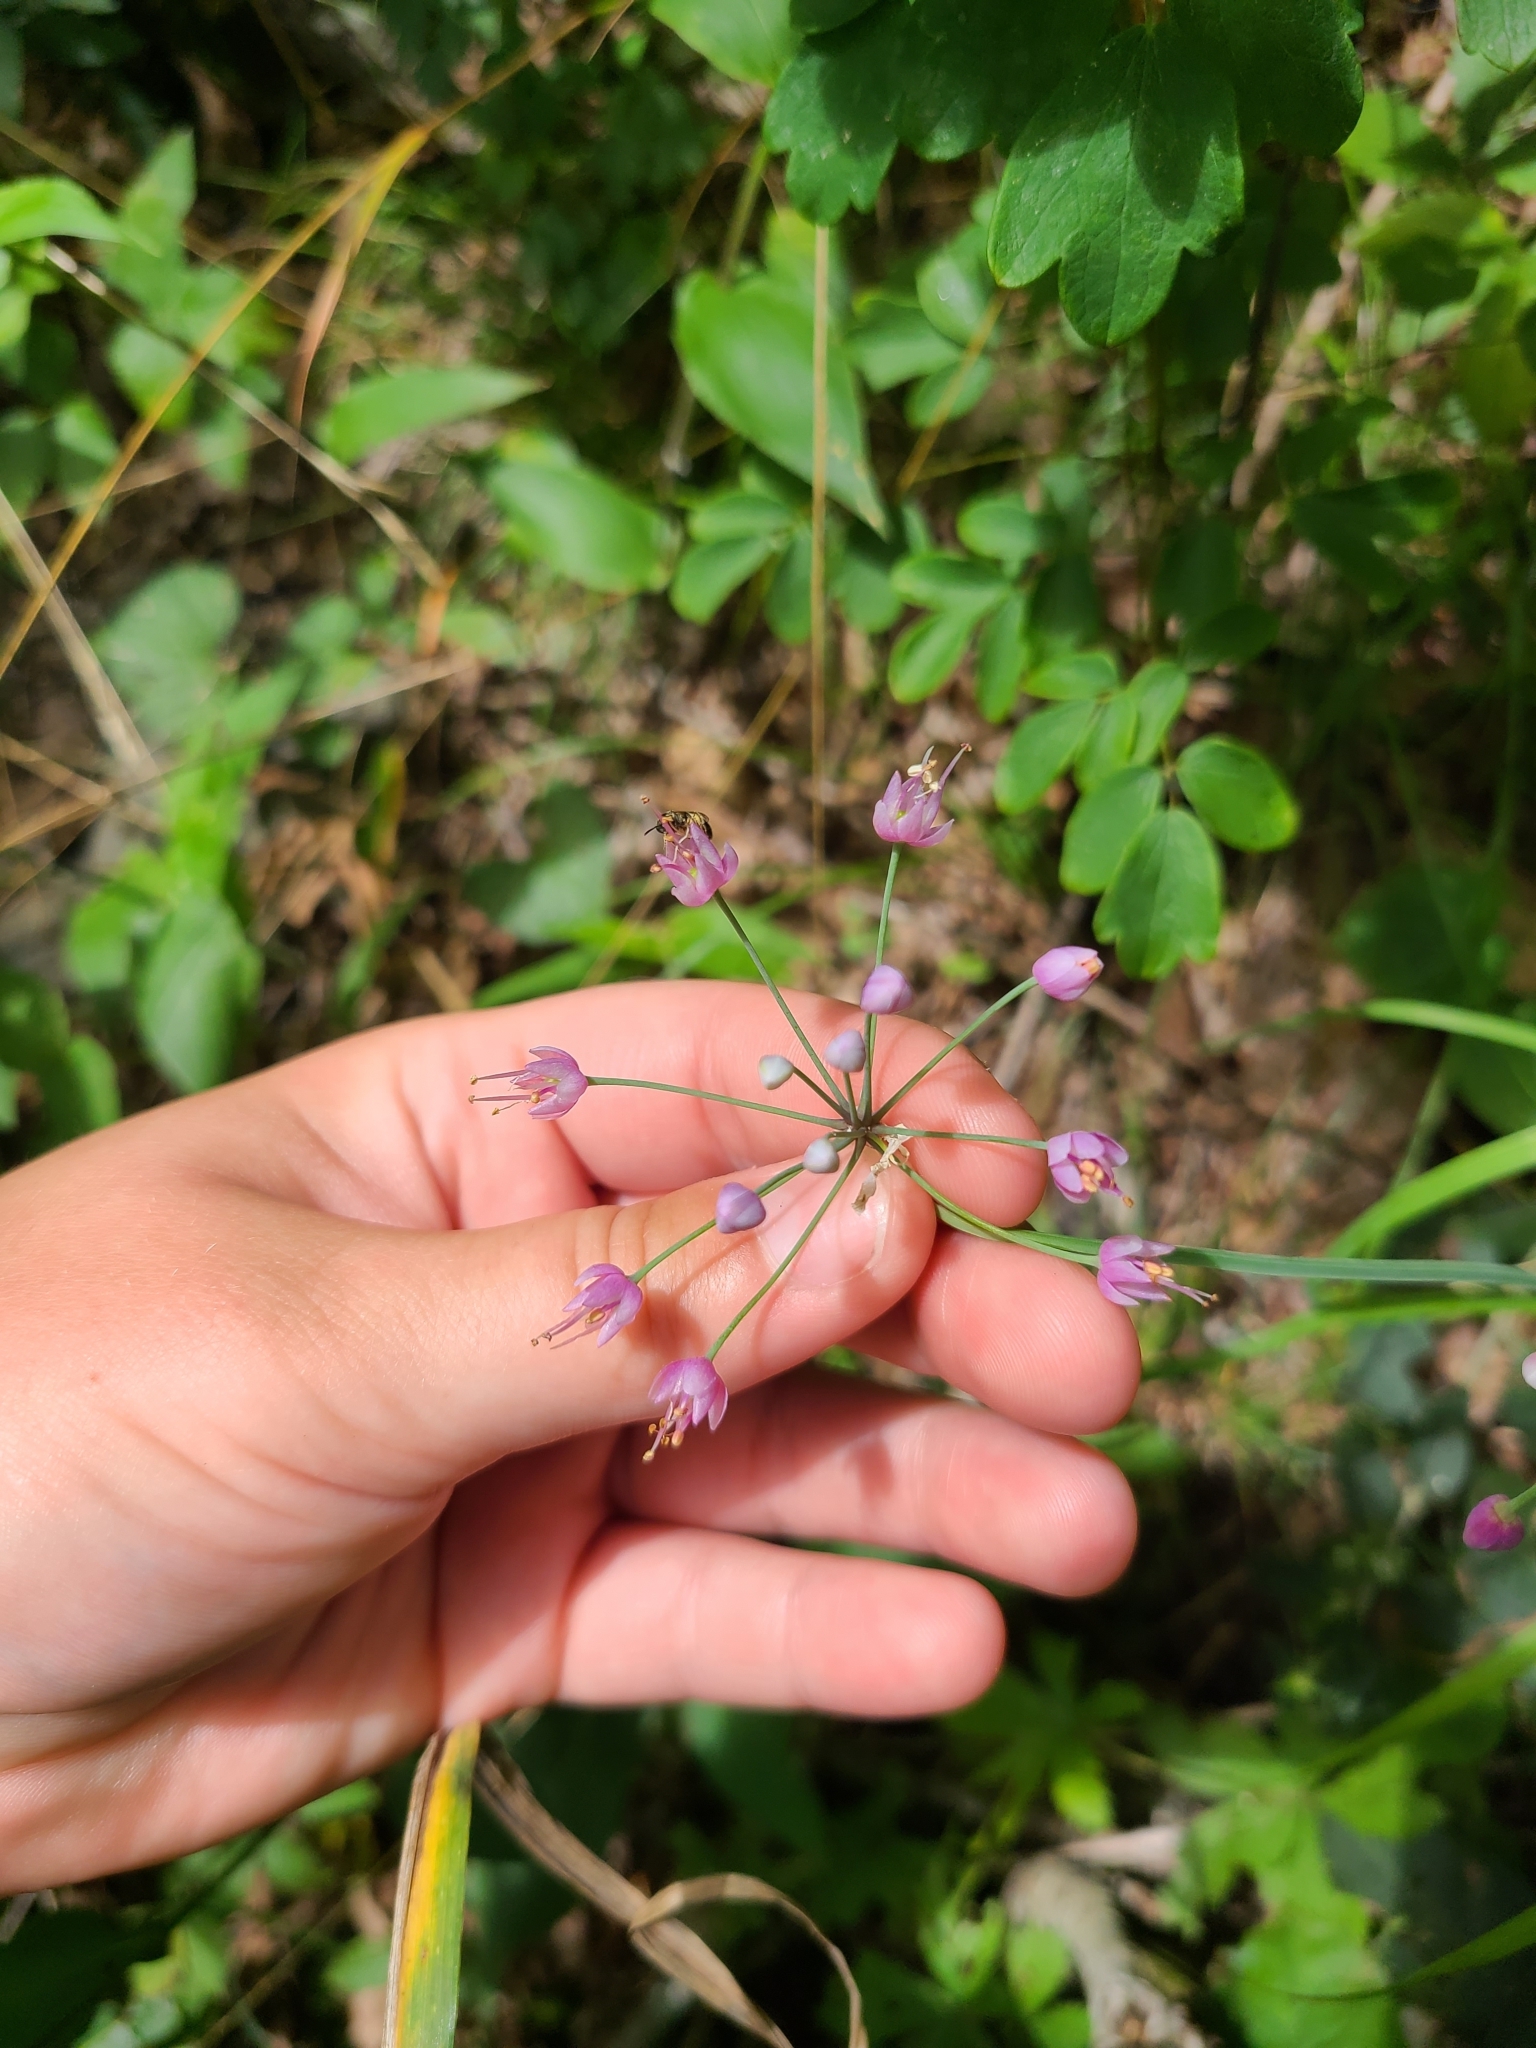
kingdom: Plantae
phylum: Tracheophyta
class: Liliopsida
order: Asparagales
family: Amaryllidaceae
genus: Allium
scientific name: Allium cernuum
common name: Nodding onion
